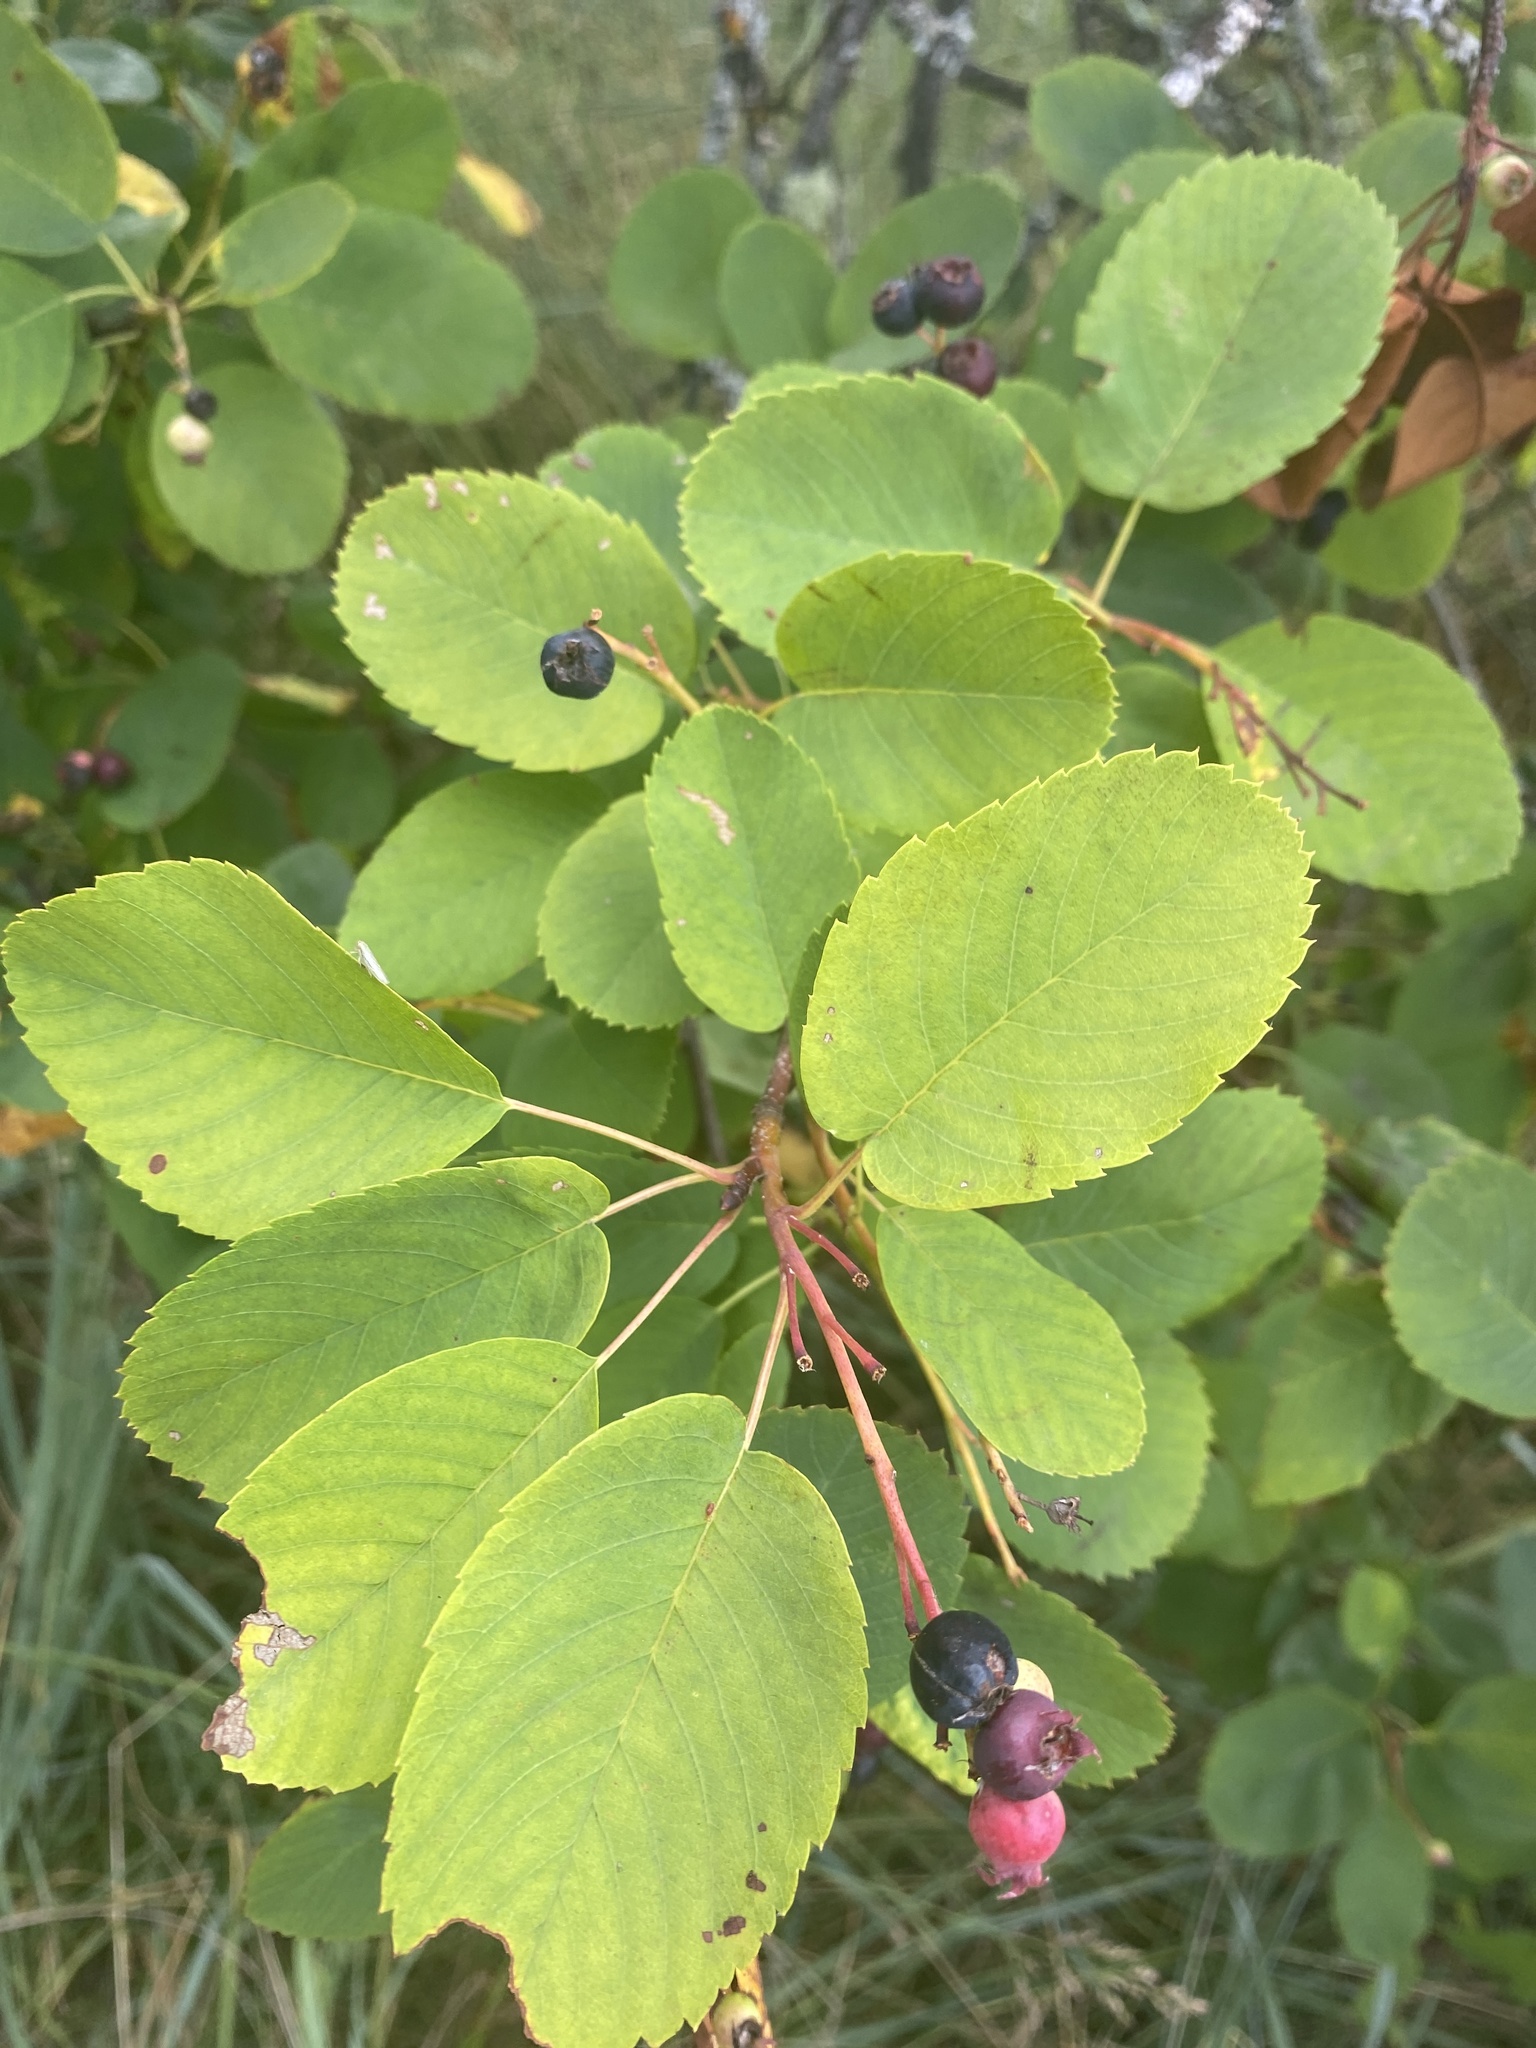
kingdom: Plantae
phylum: Tracheophyta
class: Magnoliopsida
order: Rosales
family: Rosaceae
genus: Amelanchier
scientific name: Amelanchier alnifolia
